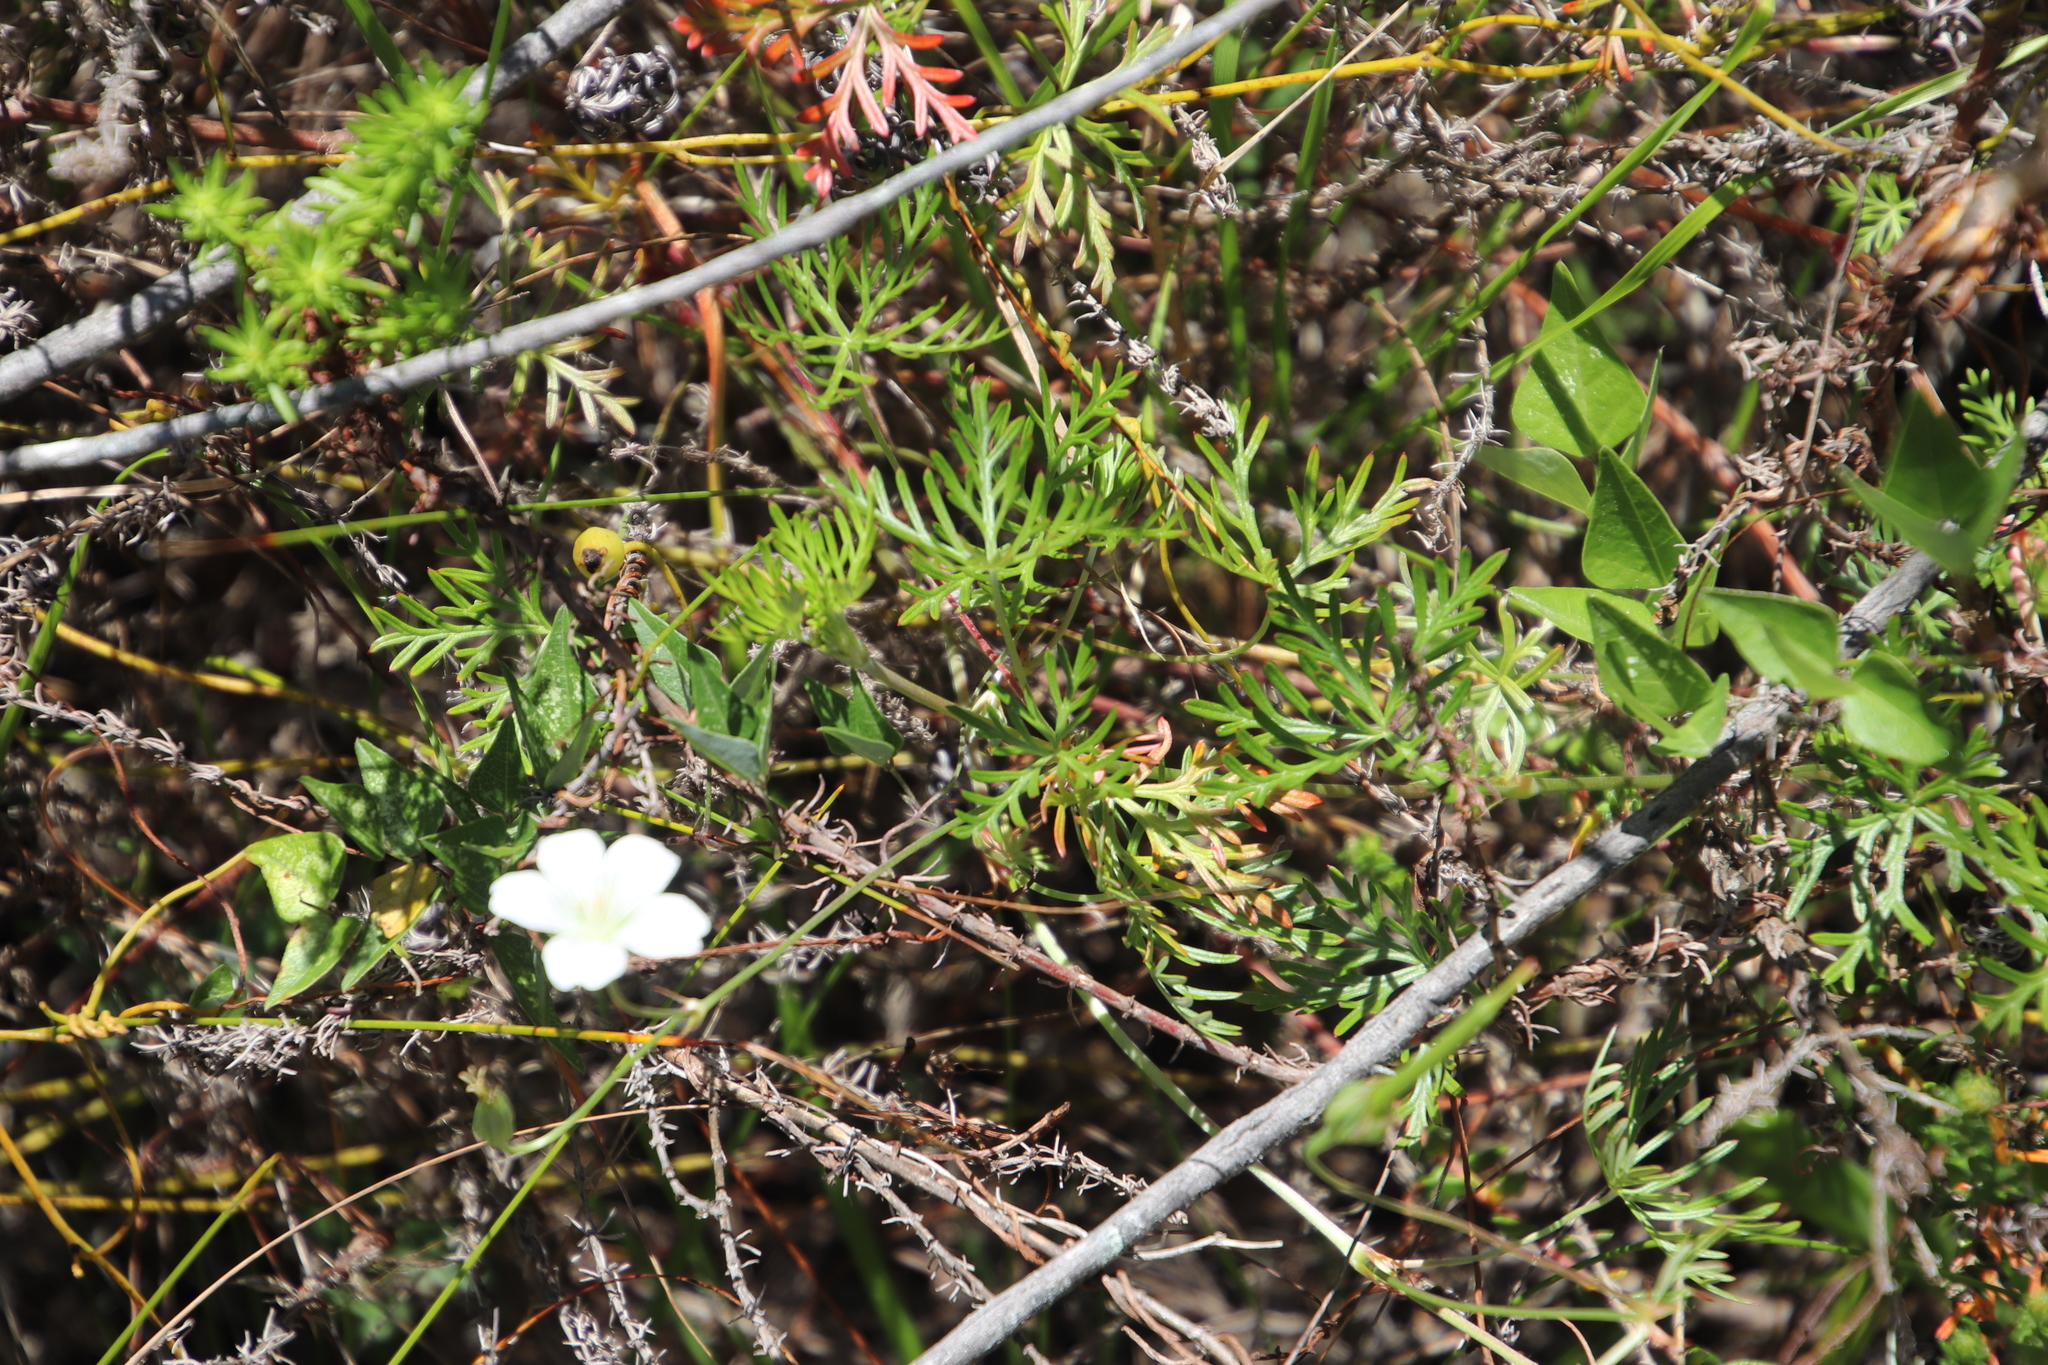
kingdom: Plantae
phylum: Tracheophyta
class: Magnoliopsida
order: Geraniales
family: Geraniaceae
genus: Geranium
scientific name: Geranium incanum
